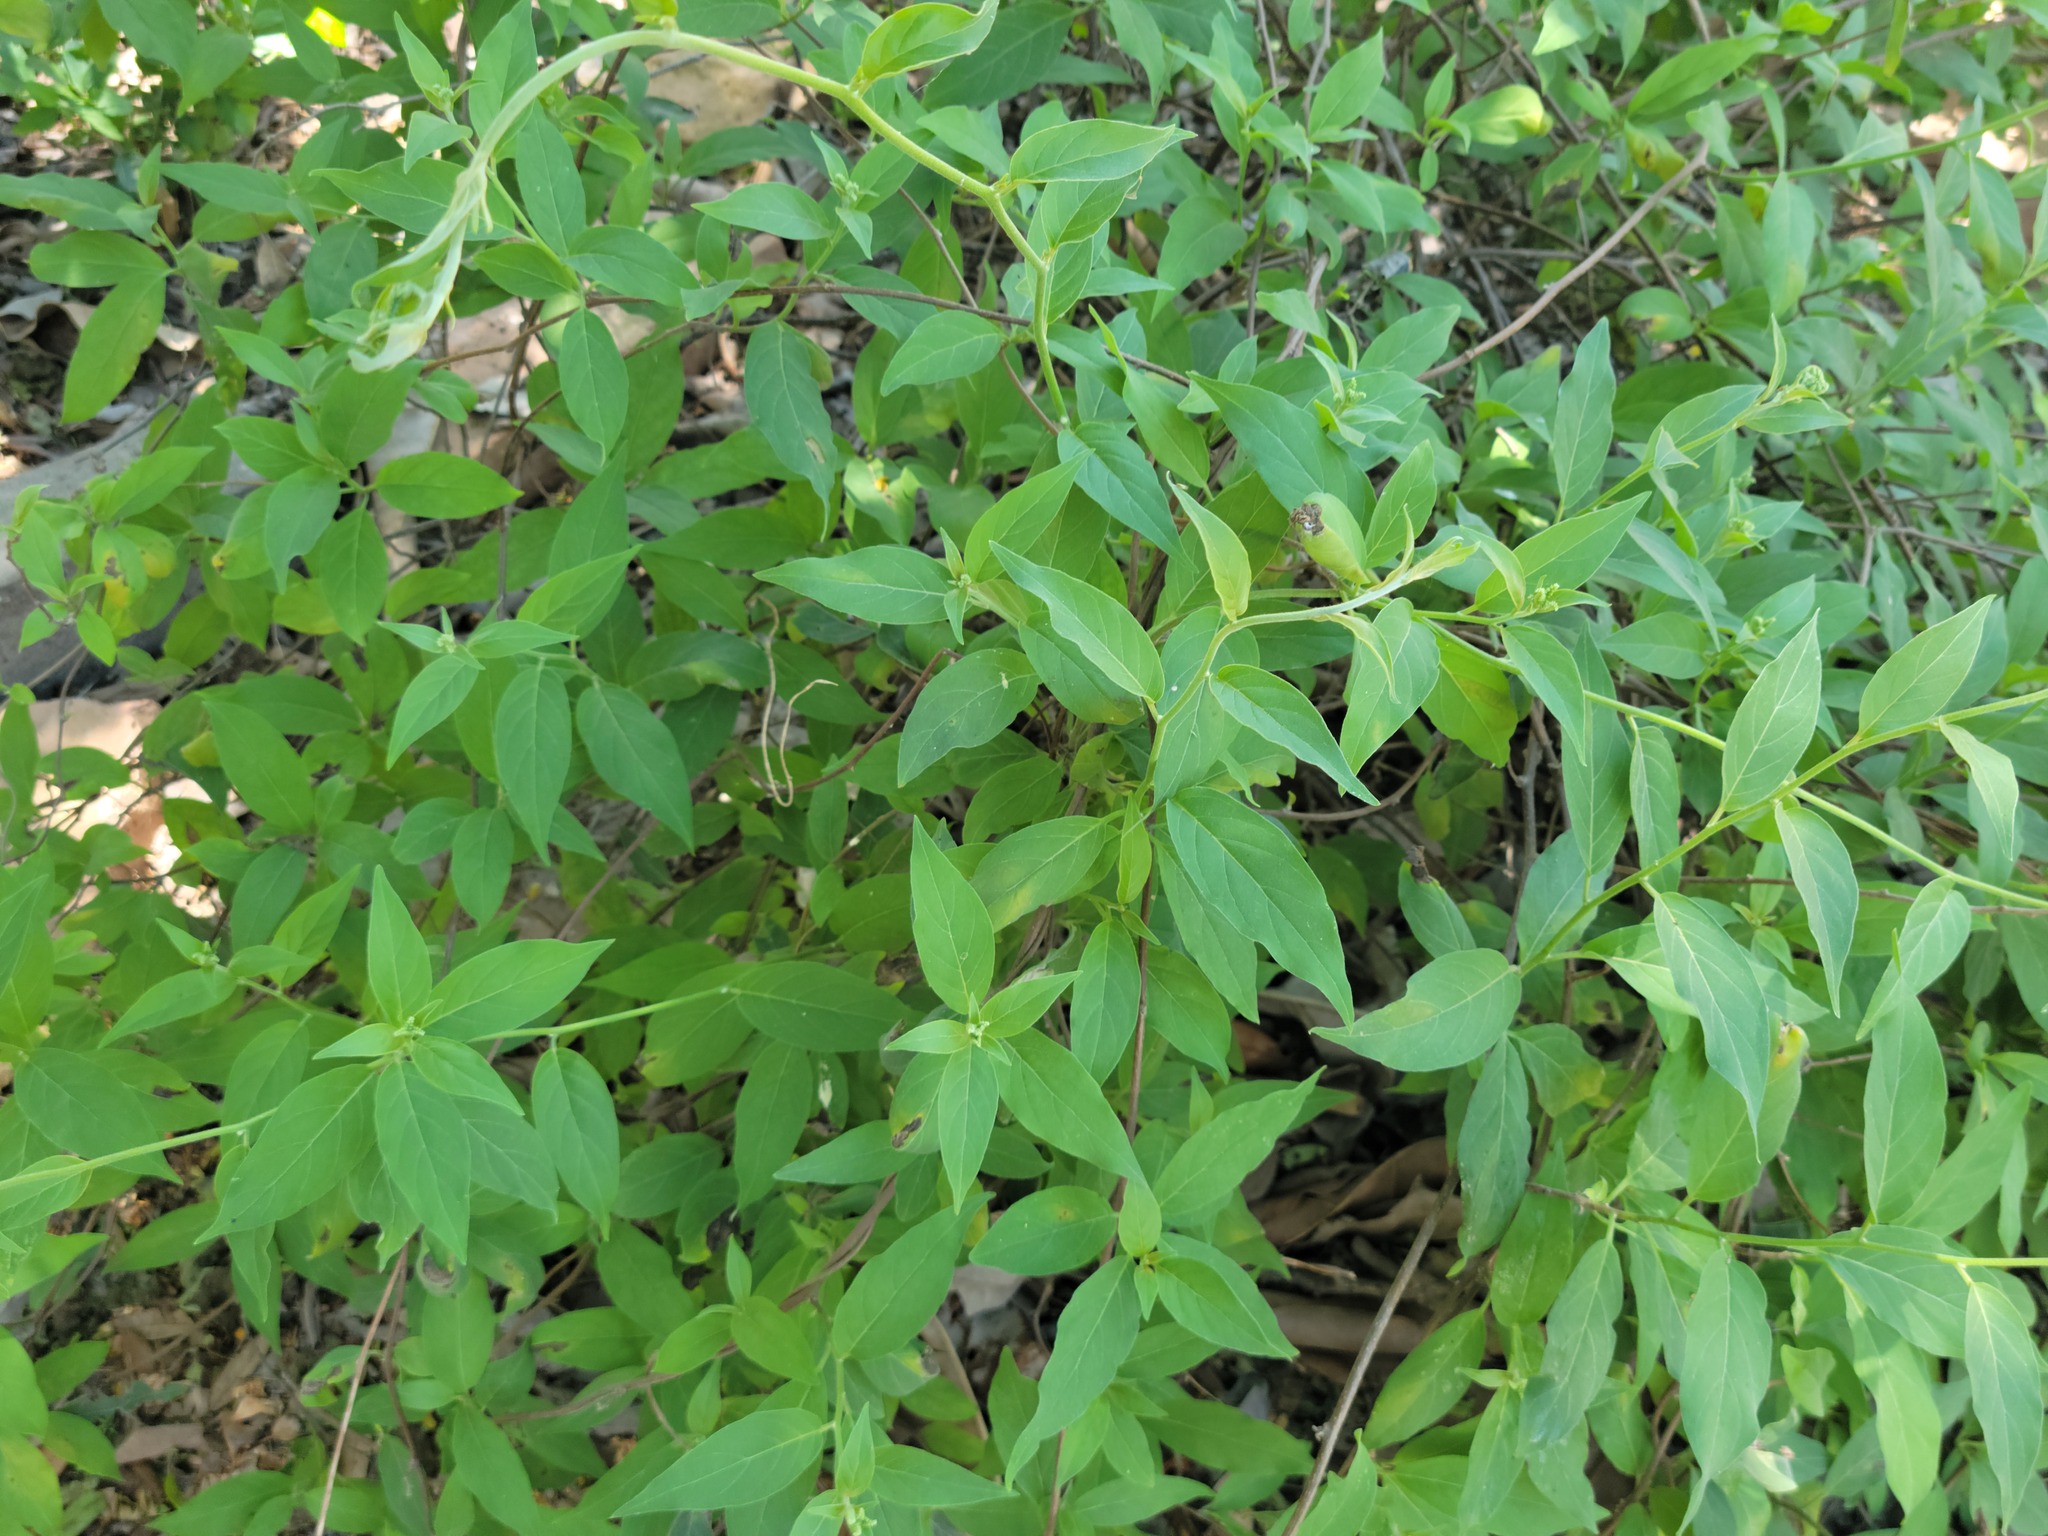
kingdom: Plantae
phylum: Tracheophyta
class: Magnoliopsida
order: Boraginales
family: Heliotropiaceae
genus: Myriopus
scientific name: Myriopus volubilis
